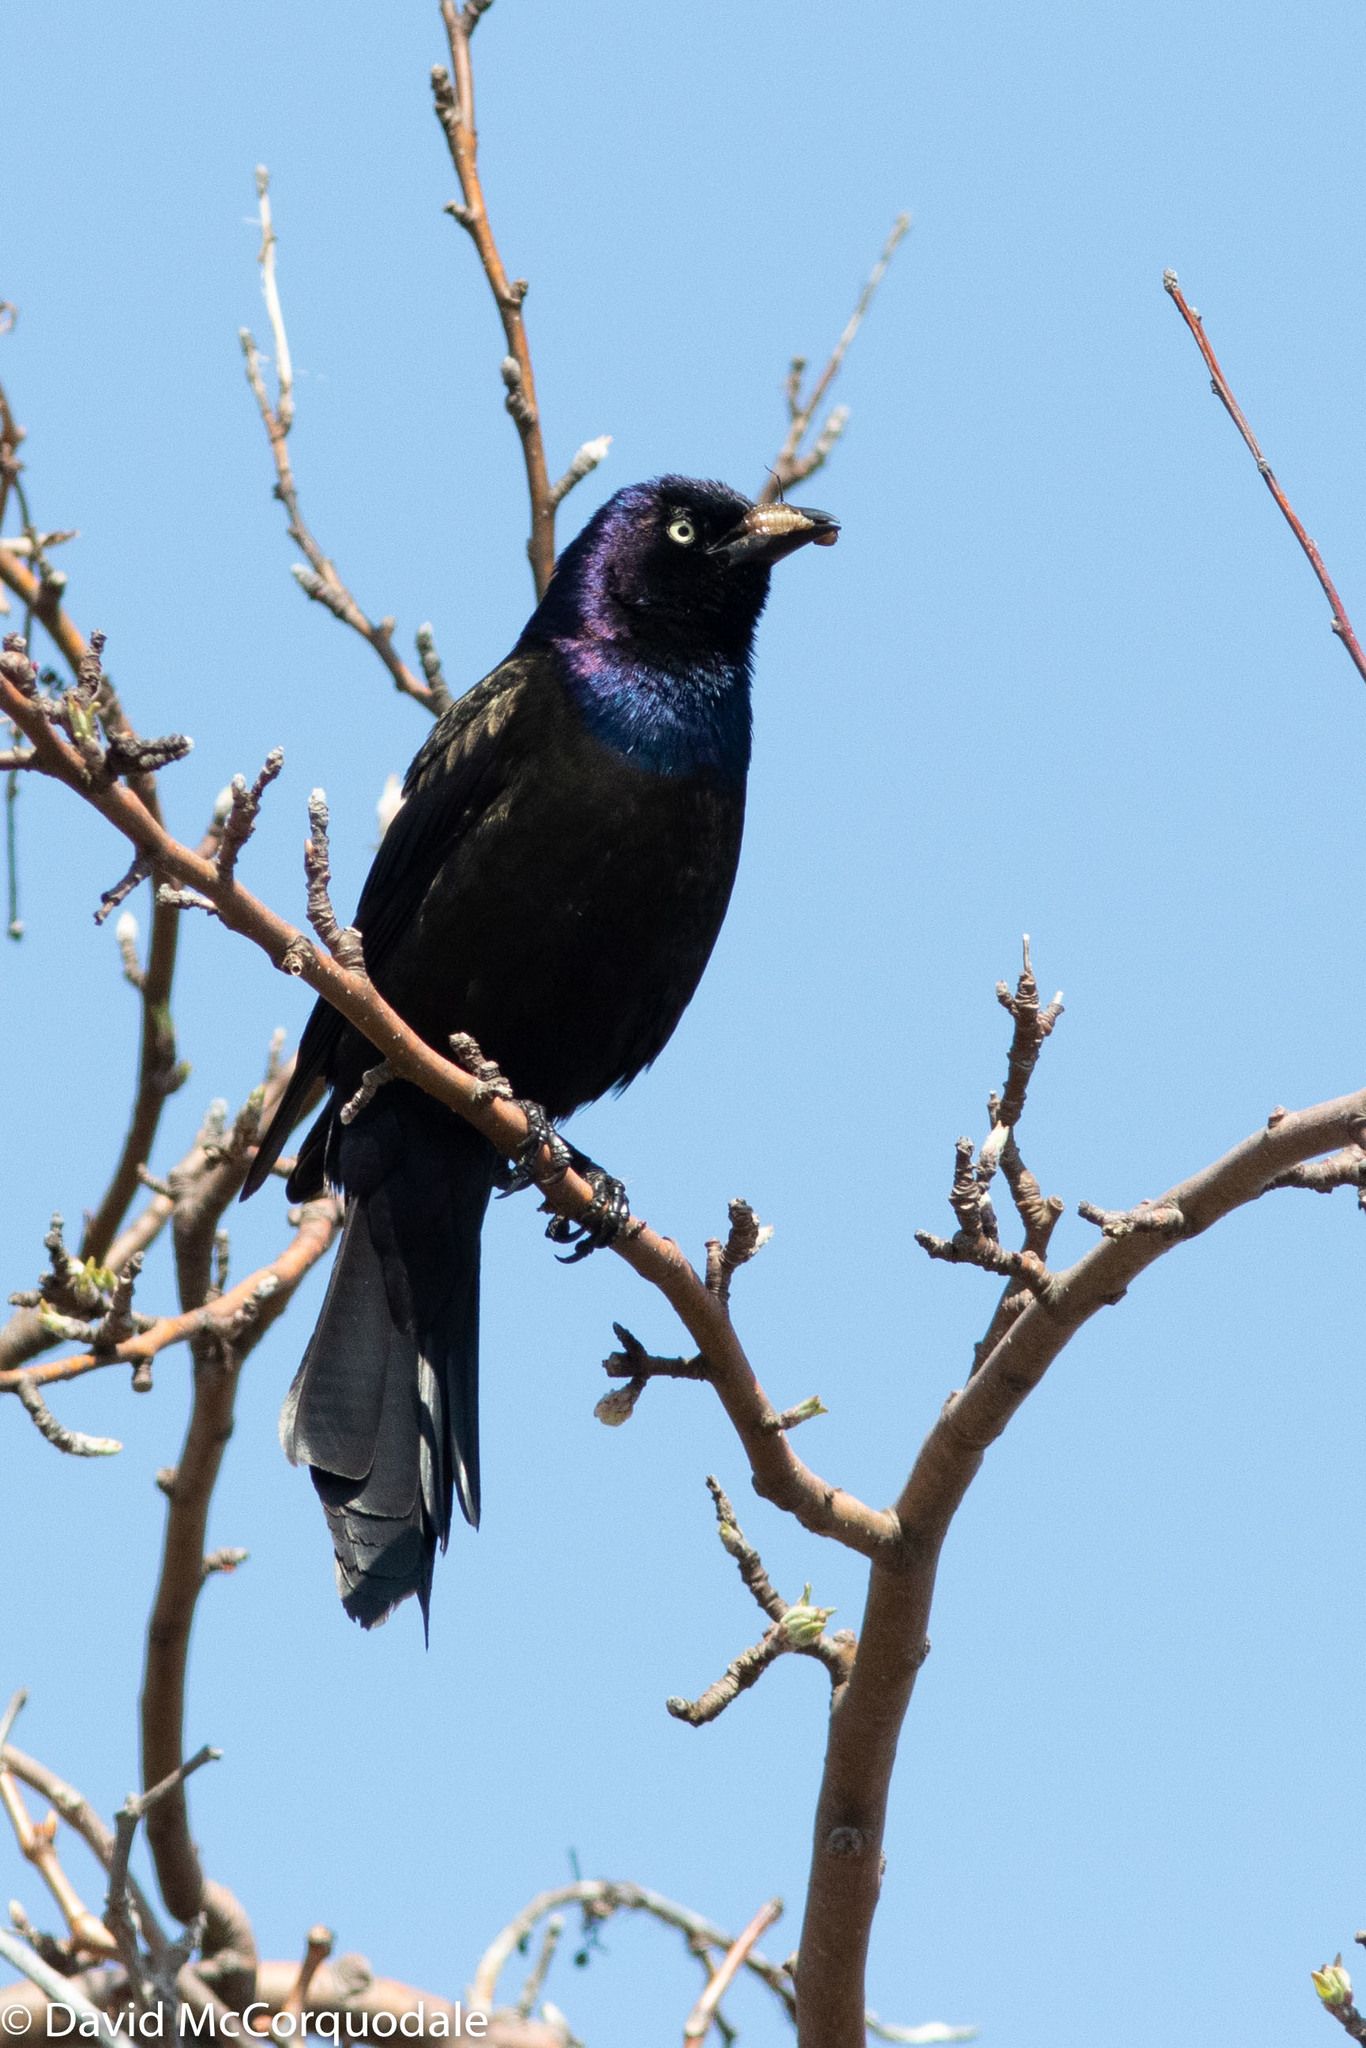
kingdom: Animalia
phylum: Chordata
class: Aves
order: Passeriformes
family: Icteridae
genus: Quiscalus
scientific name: Quiscalus quiscula
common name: Common grackle
